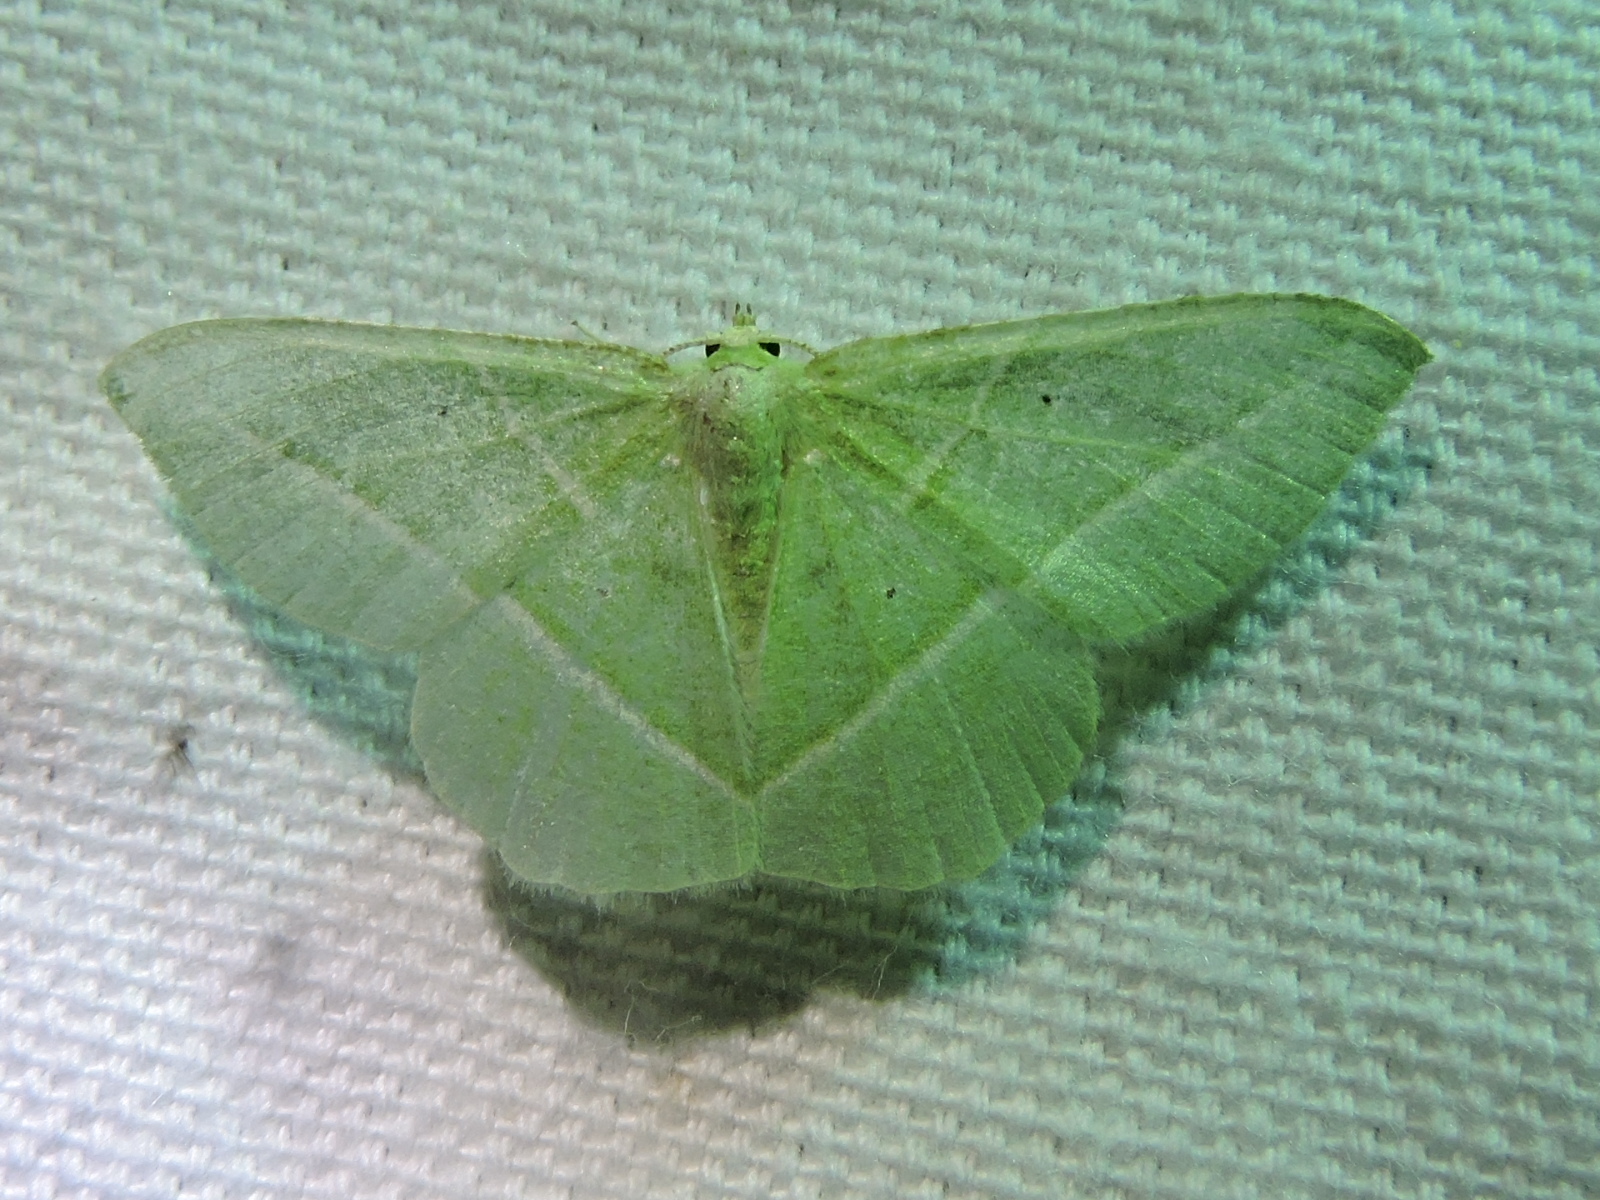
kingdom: Animalia
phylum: Arthropoda
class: Insecta
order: Lepidoptera
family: Geometridae
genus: Dichorda
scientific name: Dichorda rectaria
